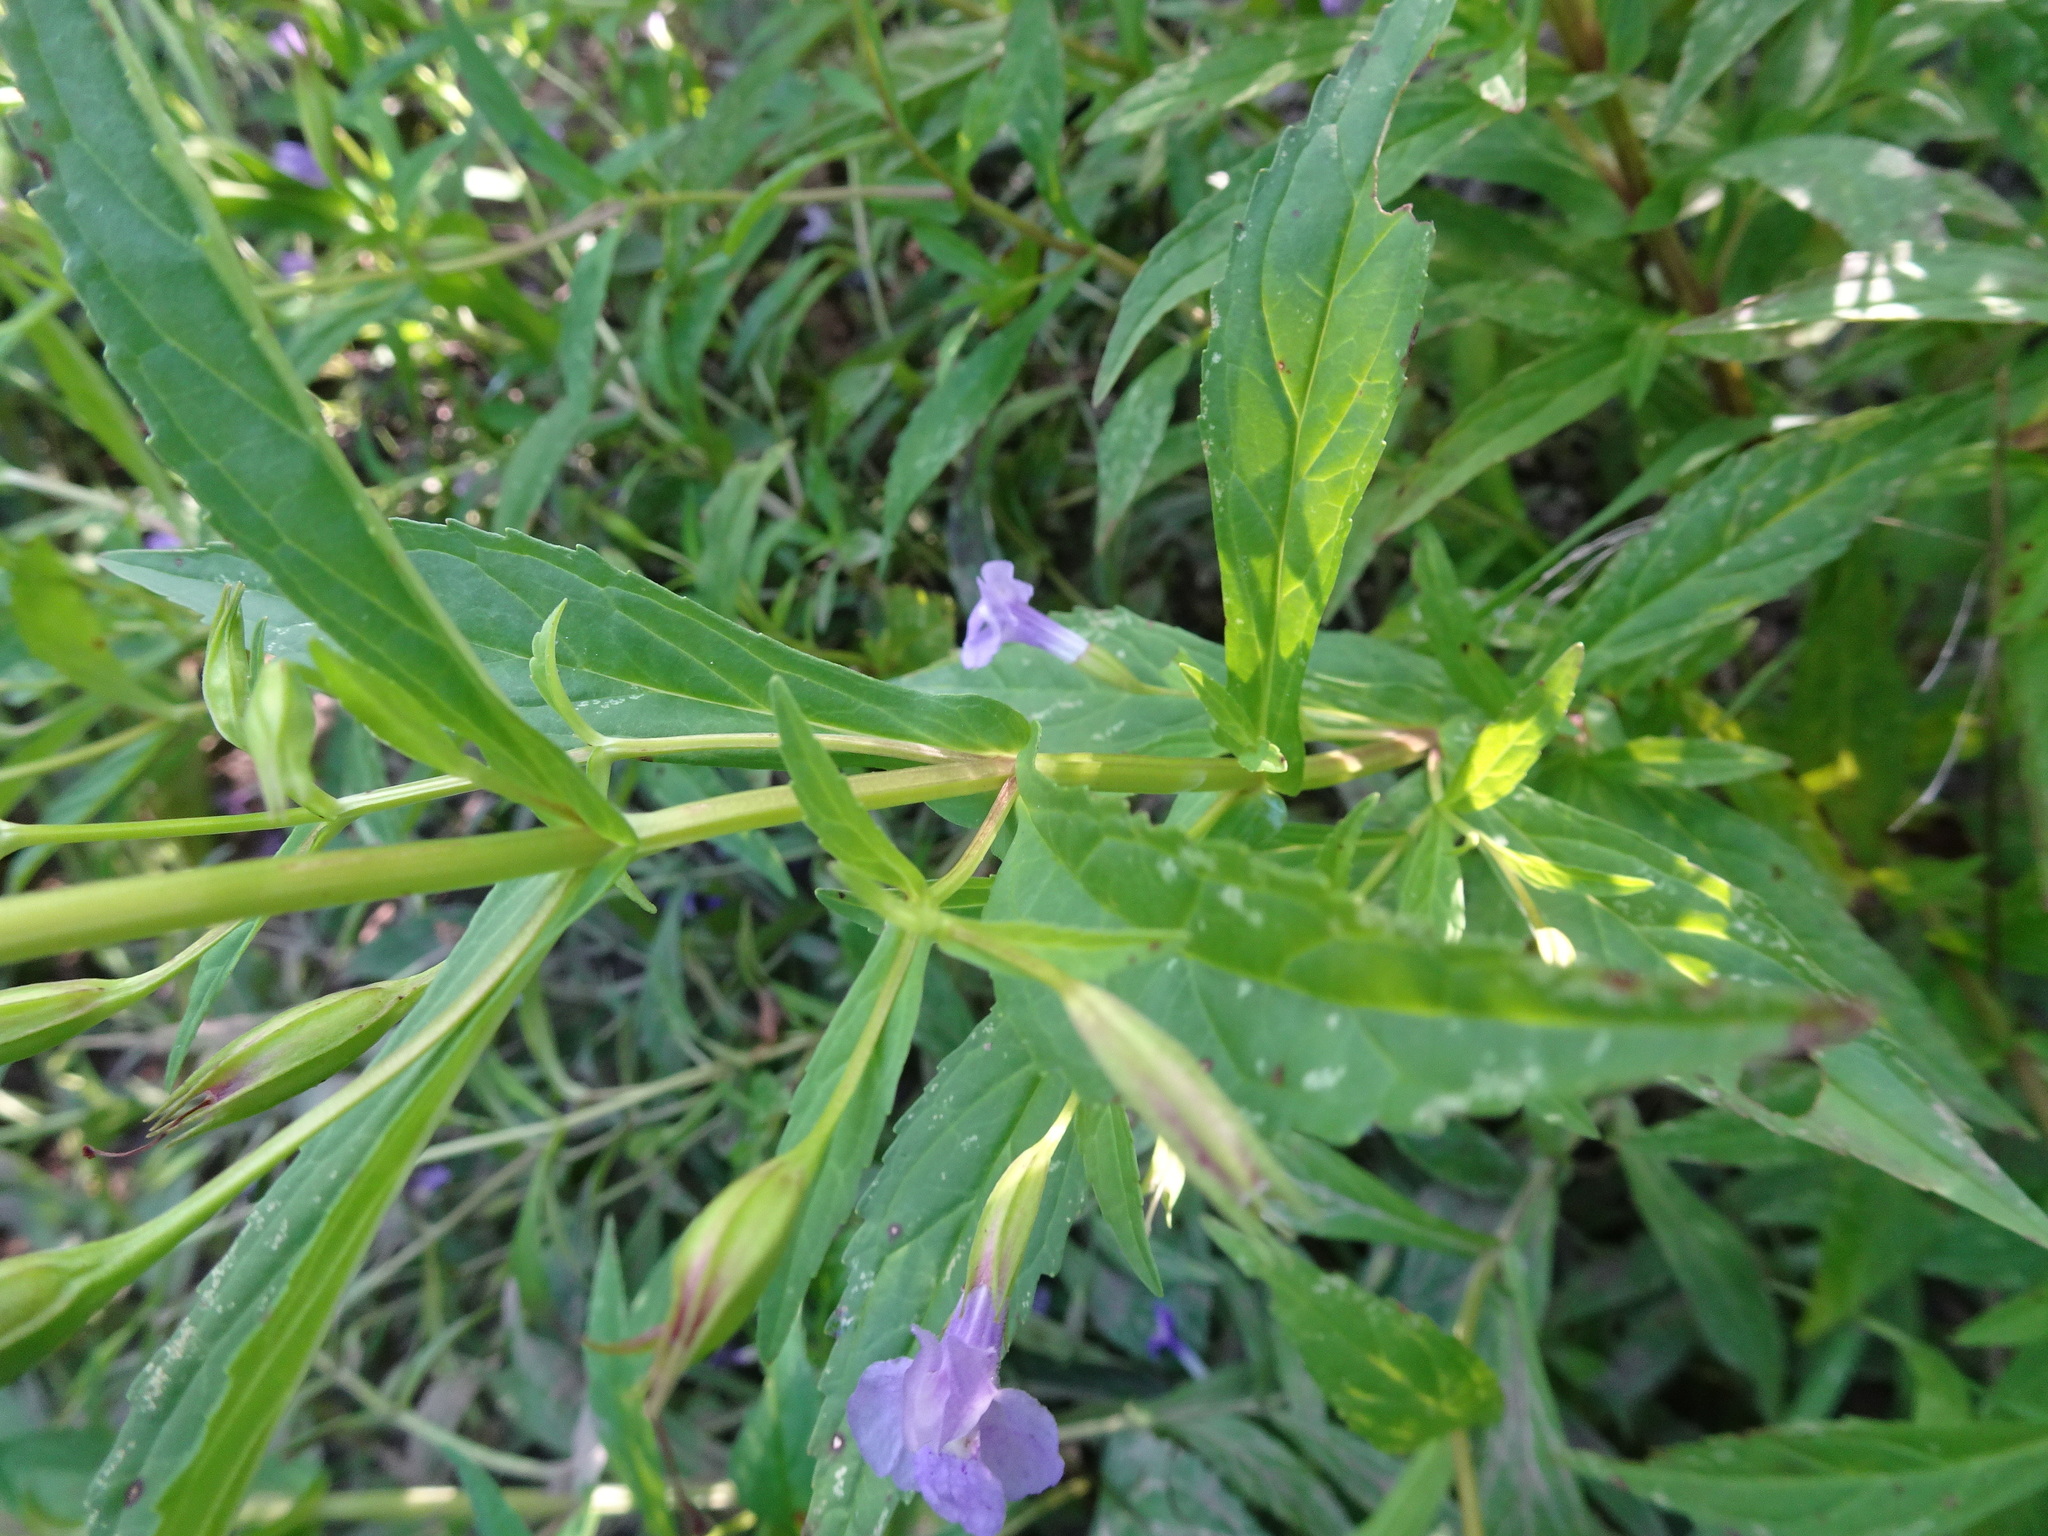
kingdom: Plantae
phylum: Tracheophyta
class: Magnoliopsida
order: Lamiales
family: Phrymaceae
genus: Mimulus
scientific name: Mimulus ringens
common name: Allegheny monkeyflower
